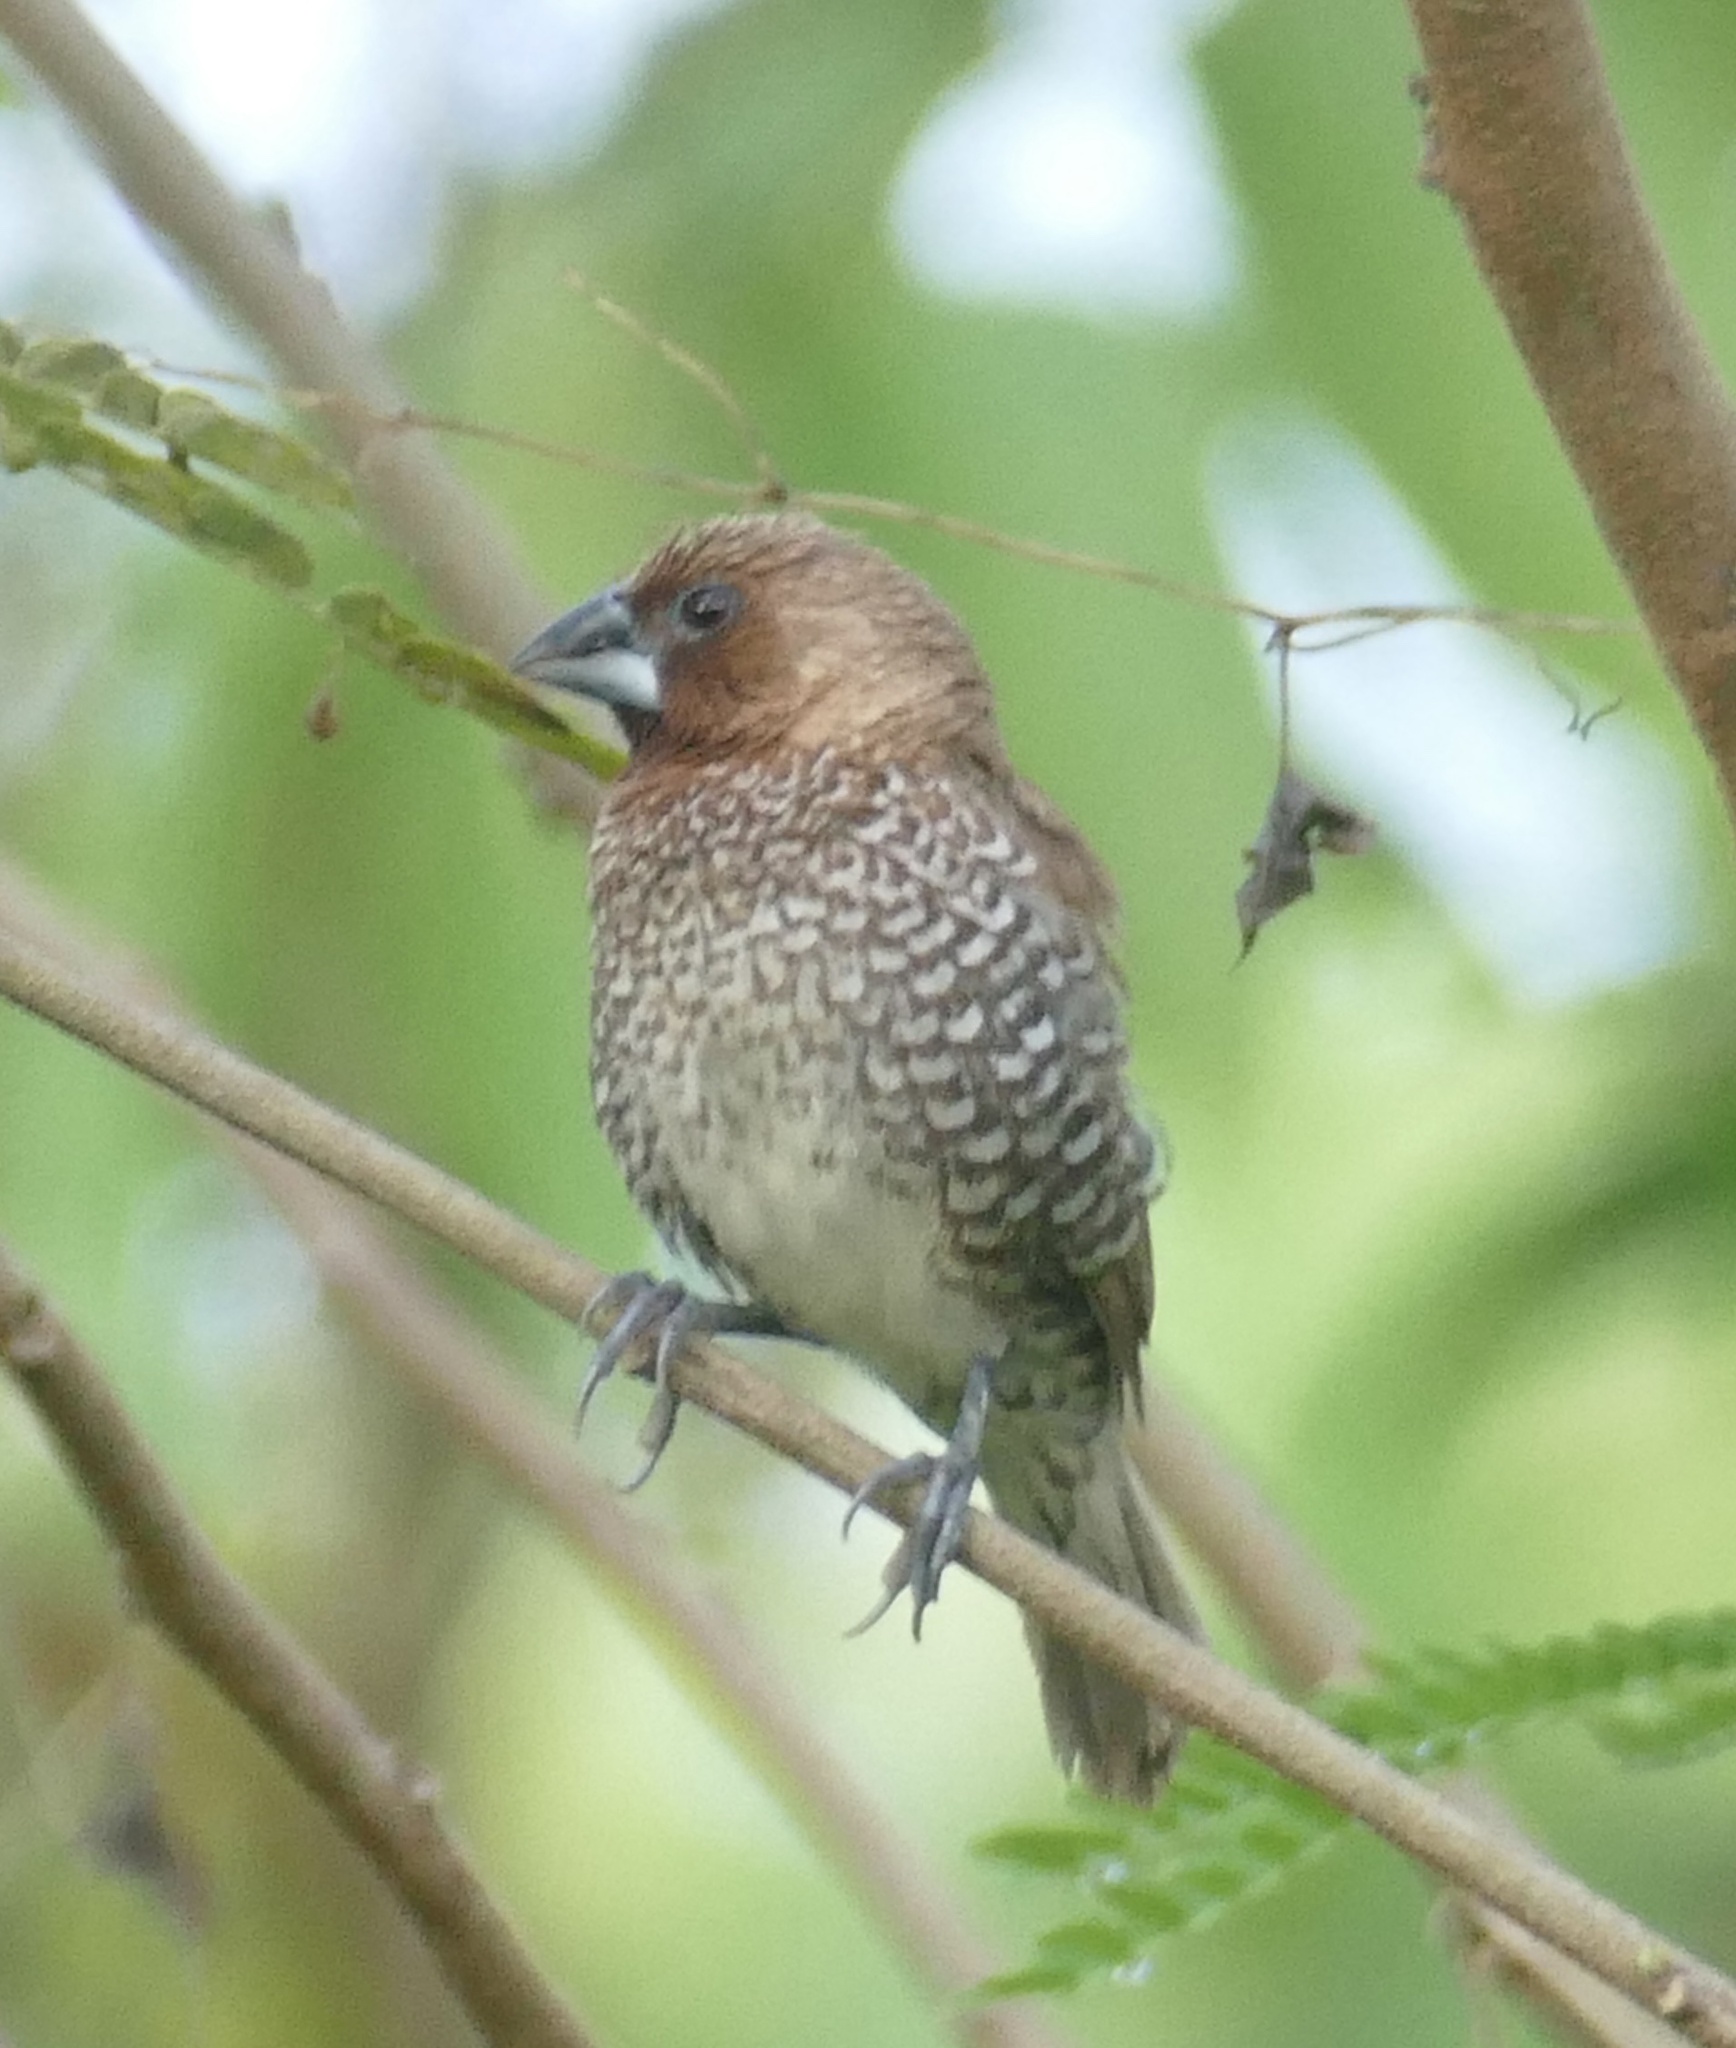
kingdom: Animalia
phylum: Chordata
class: Aves
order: Passeriformes
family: Estrildidae
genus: Lonchura
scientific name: Lonchura punctulata
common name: Scaly-breasted munia
